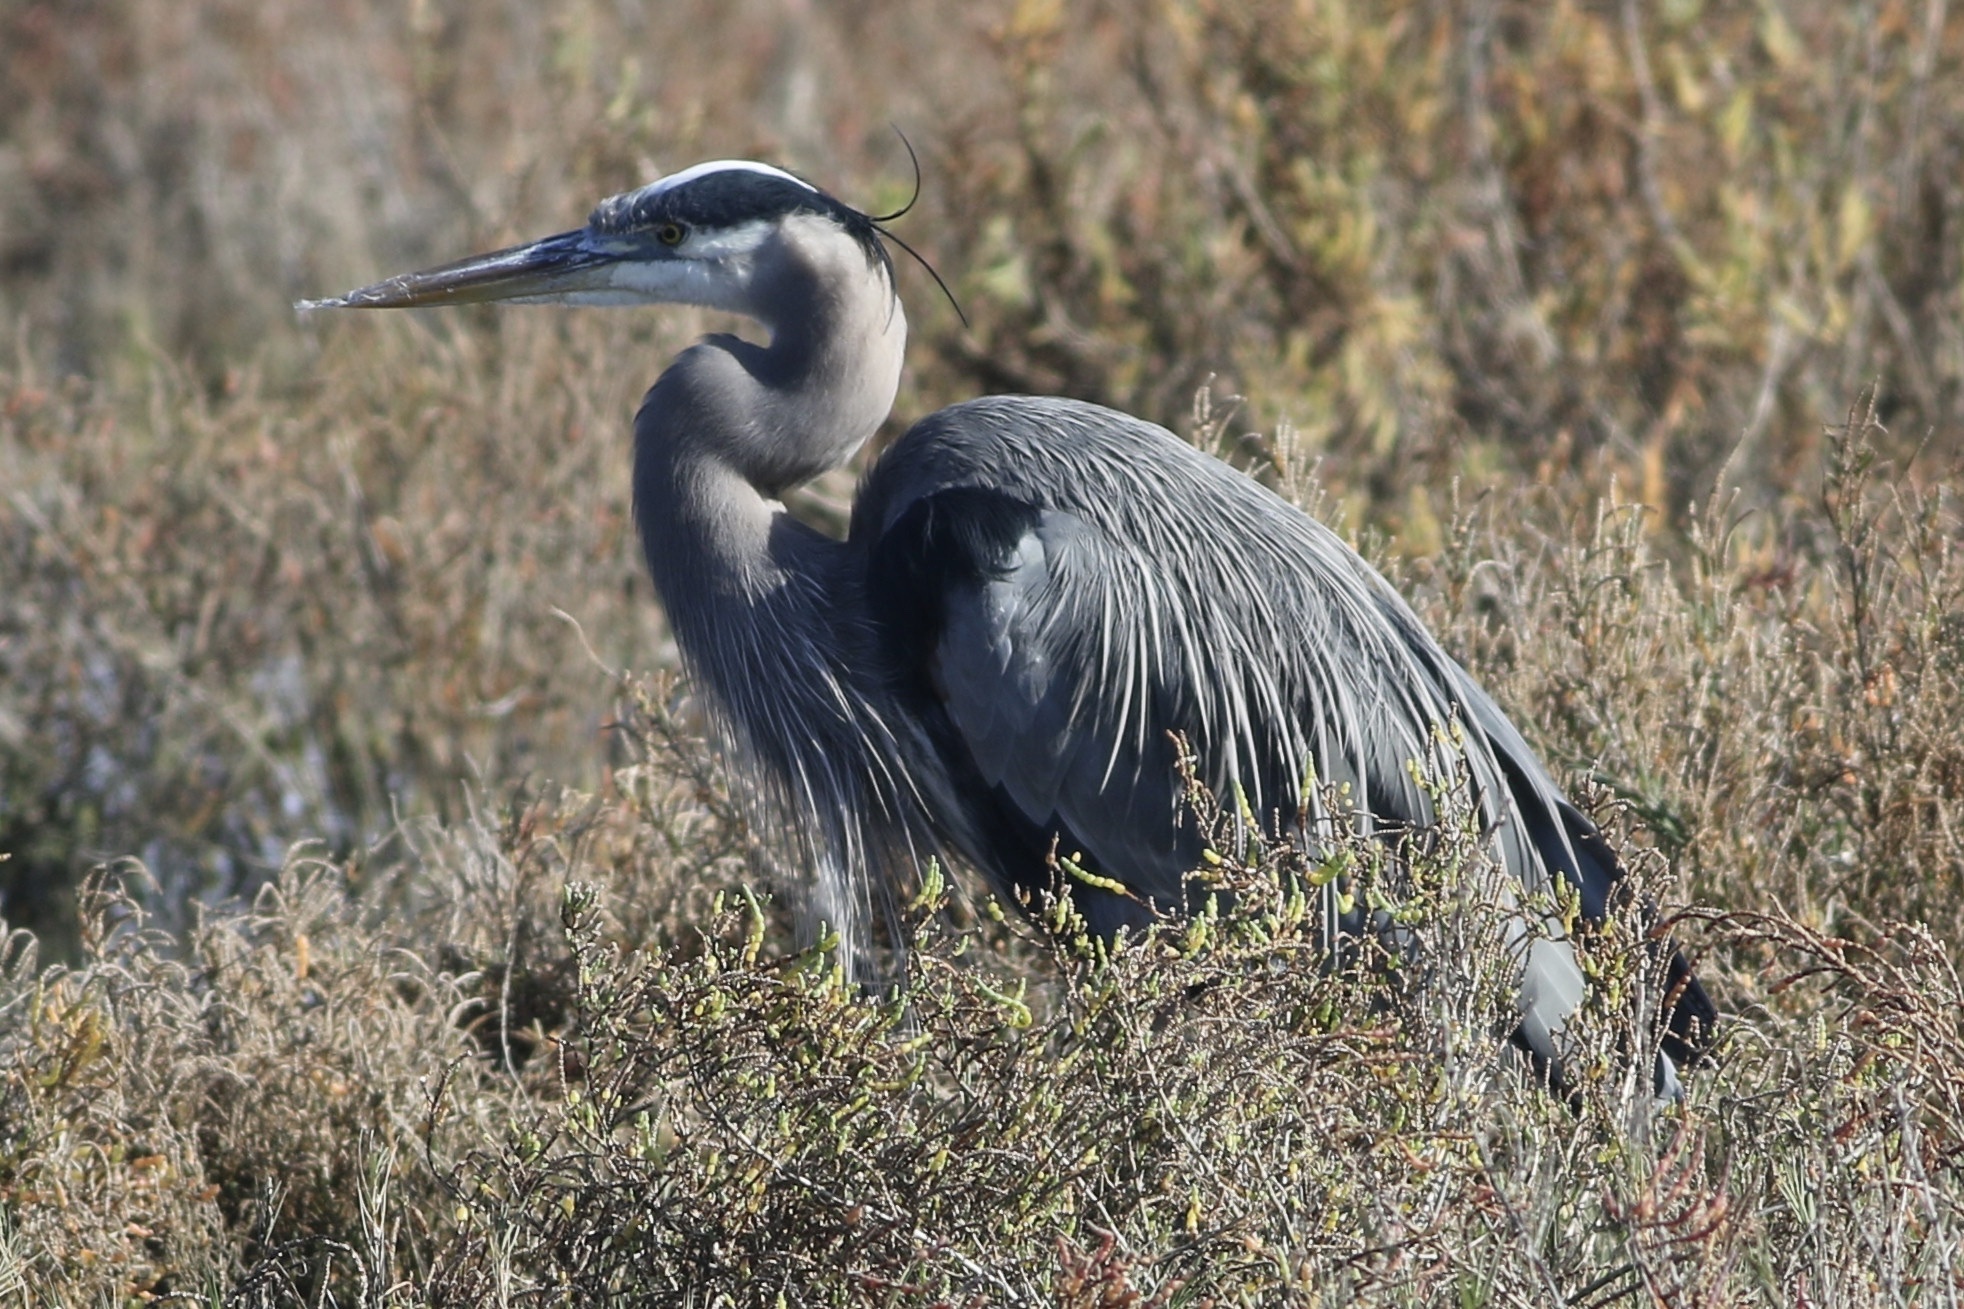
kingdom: Animalia
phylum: Chordata
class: Aves
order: Pelecaniformes
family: Ardeidae
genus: Ardea
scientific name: Ardea herodias
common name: Great blue heron
